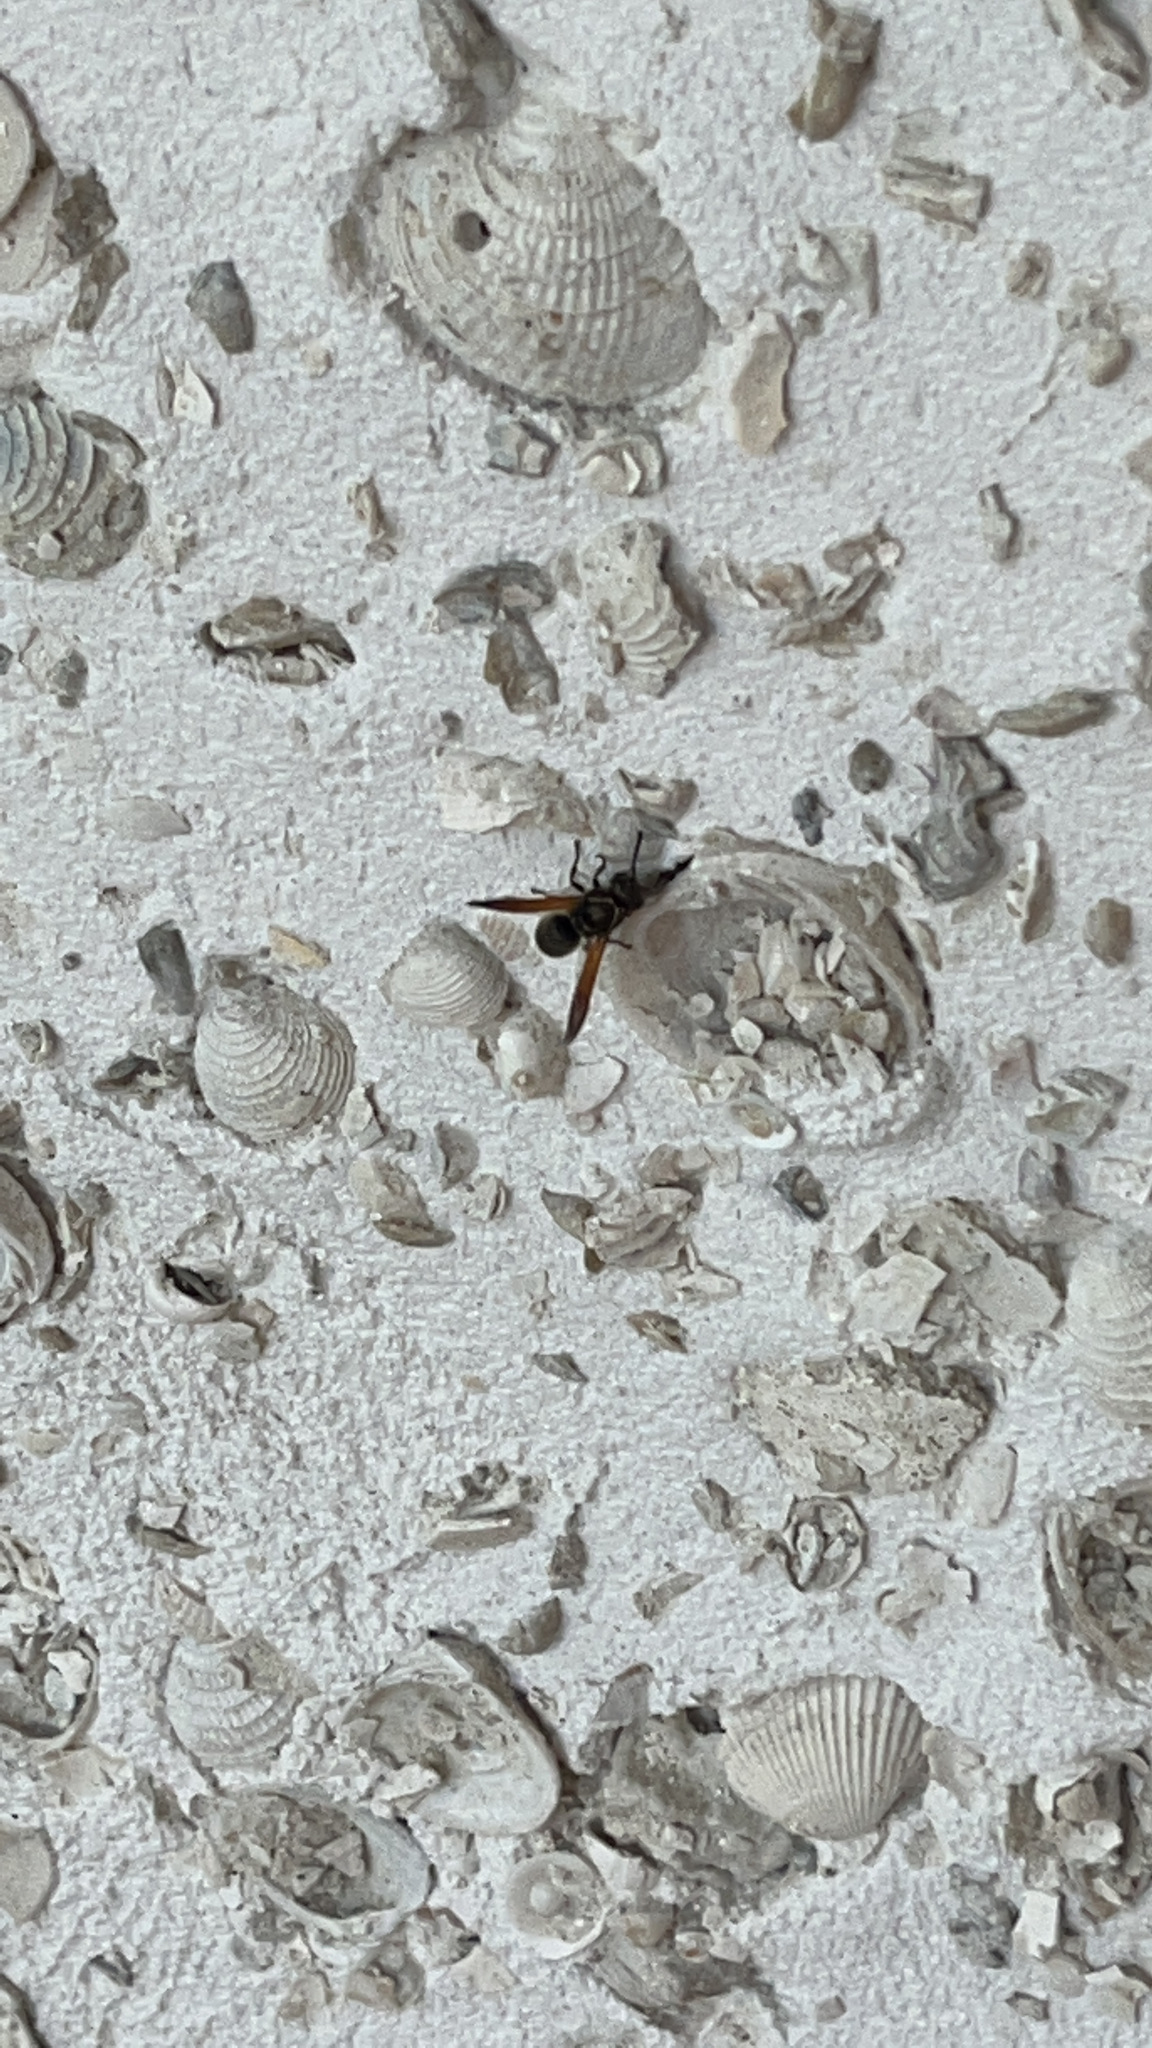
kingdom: Animalia
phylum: Arthropoda
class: Insecta
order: Hymenoptera
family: Eumenidae
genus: Pachodynerus
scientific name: Pachodynerus nasidens
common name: Key hole wasp
